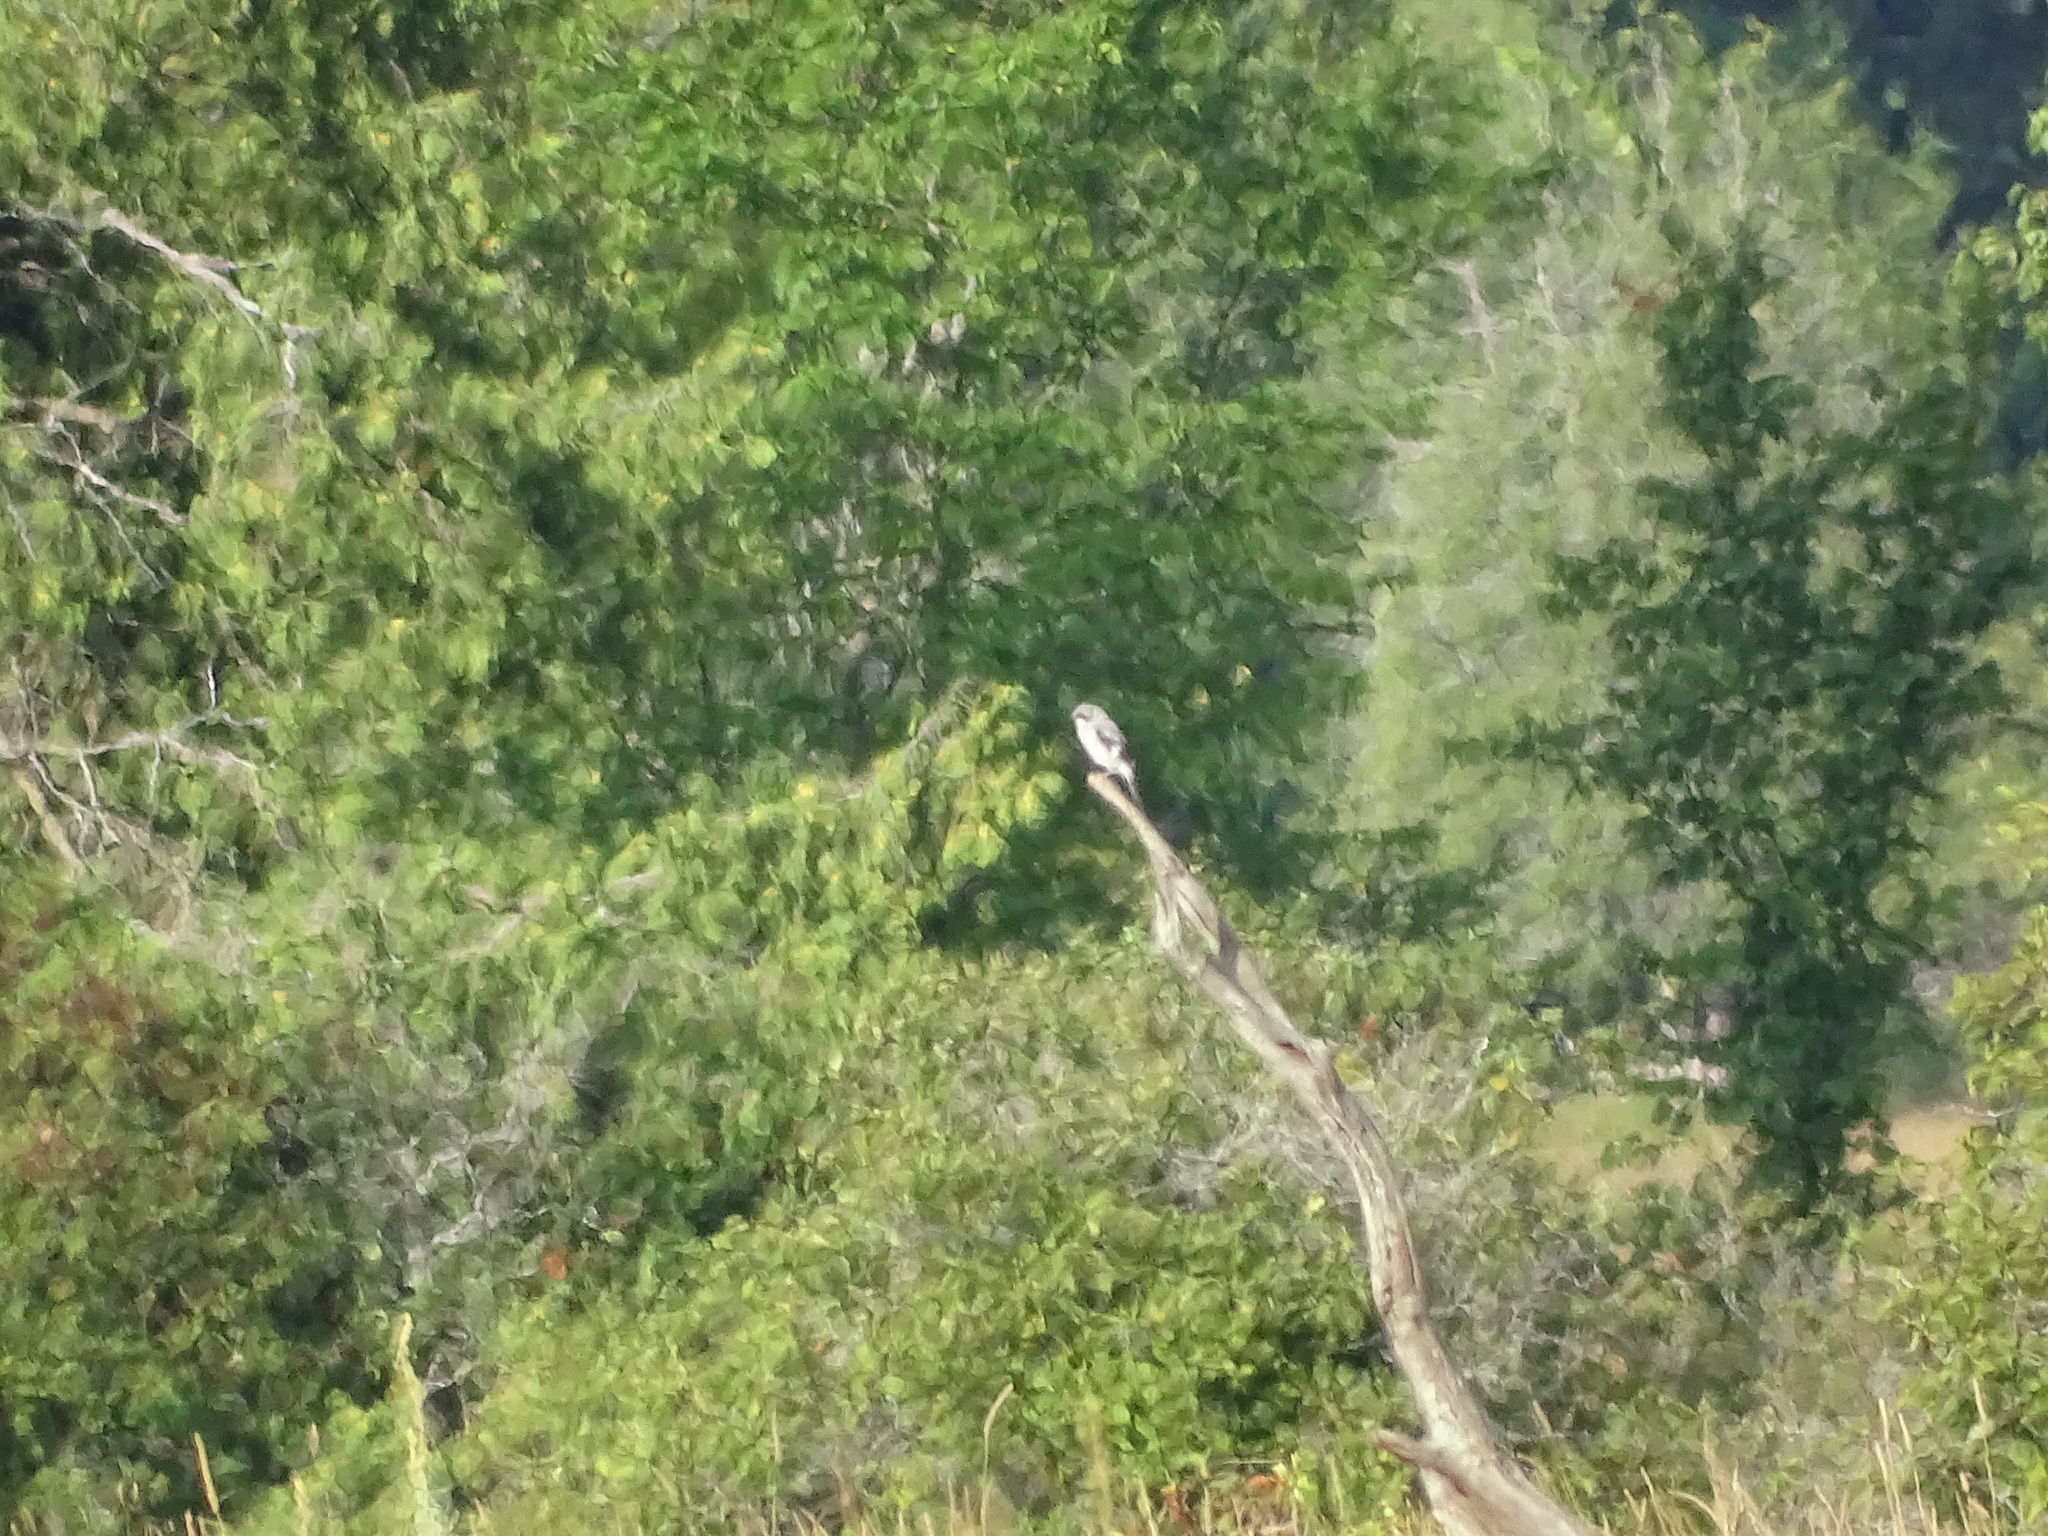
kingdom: Animalia
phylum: Chordata
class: Aves
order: Passeriformes
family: Laniidae
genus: Lanius
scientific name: Lanius ludovicianus
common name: Loggerhead shrike
